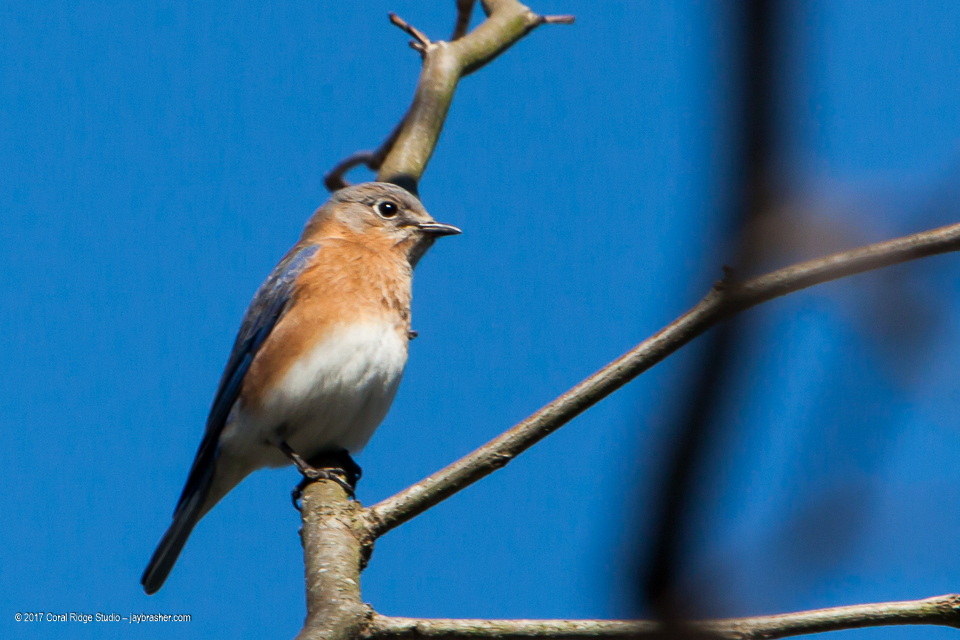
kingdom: Animalia
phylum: Chordata
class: Aves
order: Passeriformes
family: Turdidae
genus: Sialia
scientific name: Sialia sialis
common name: Eastern bluebird
